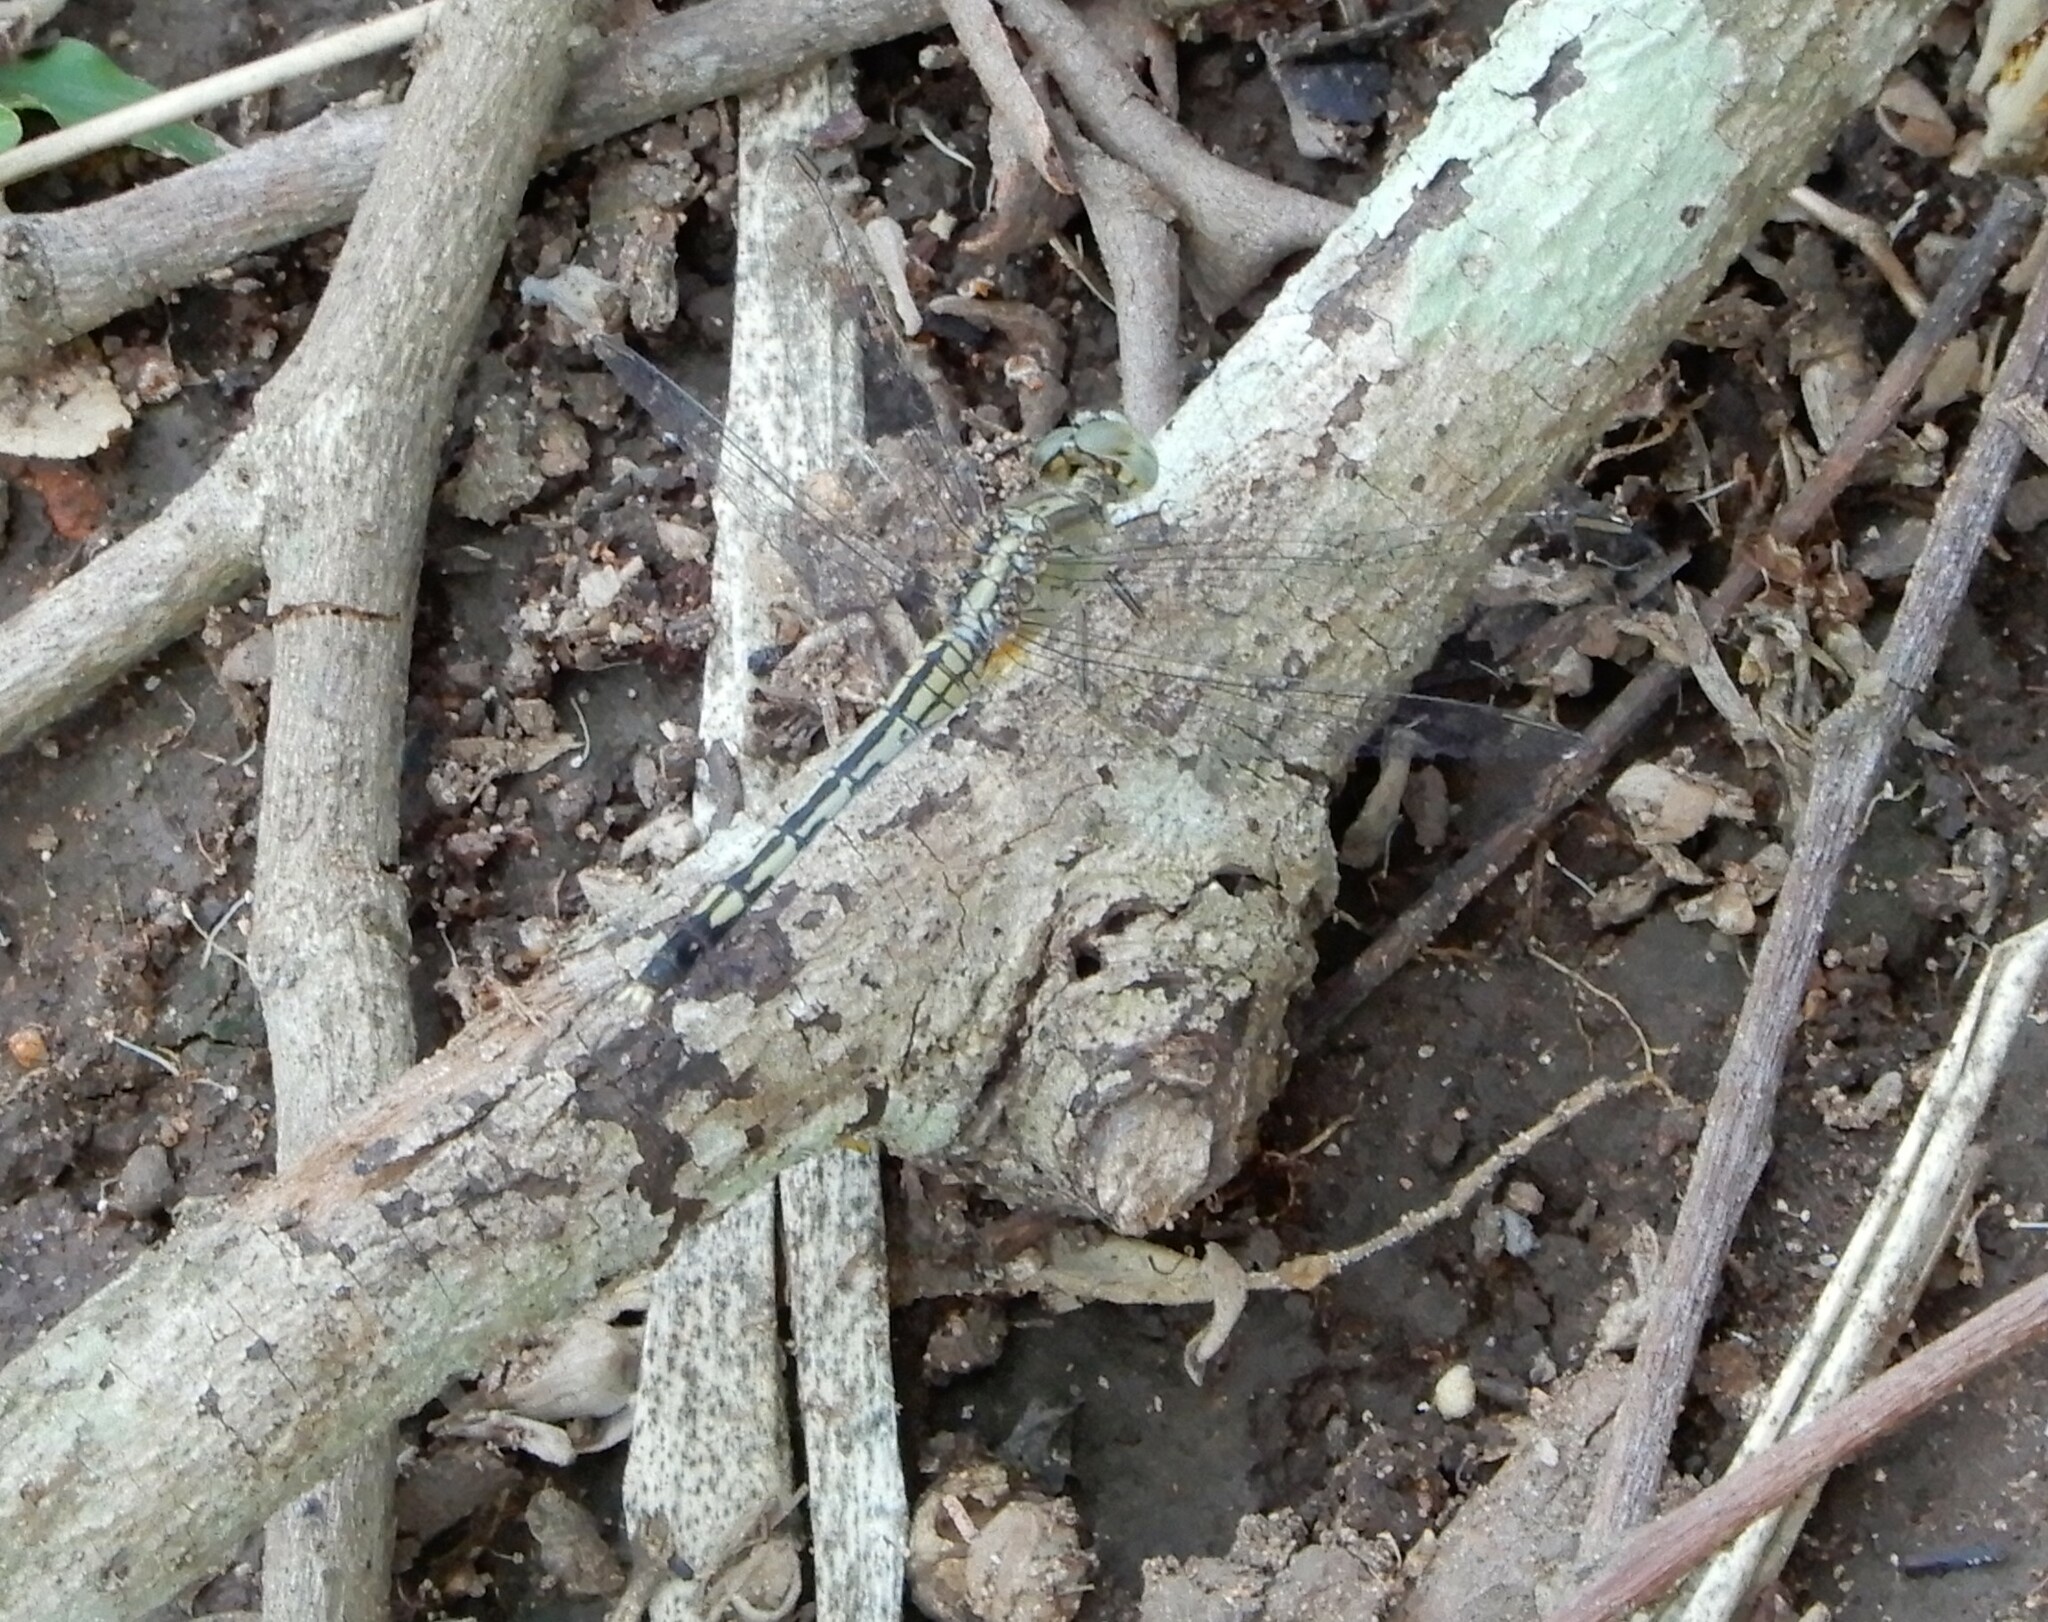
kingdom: Animalia
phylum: Arthropoda
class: Insecta
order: Odonata
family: Libellulidae
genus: Diplacodes
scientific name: Diplacodes trivialis
